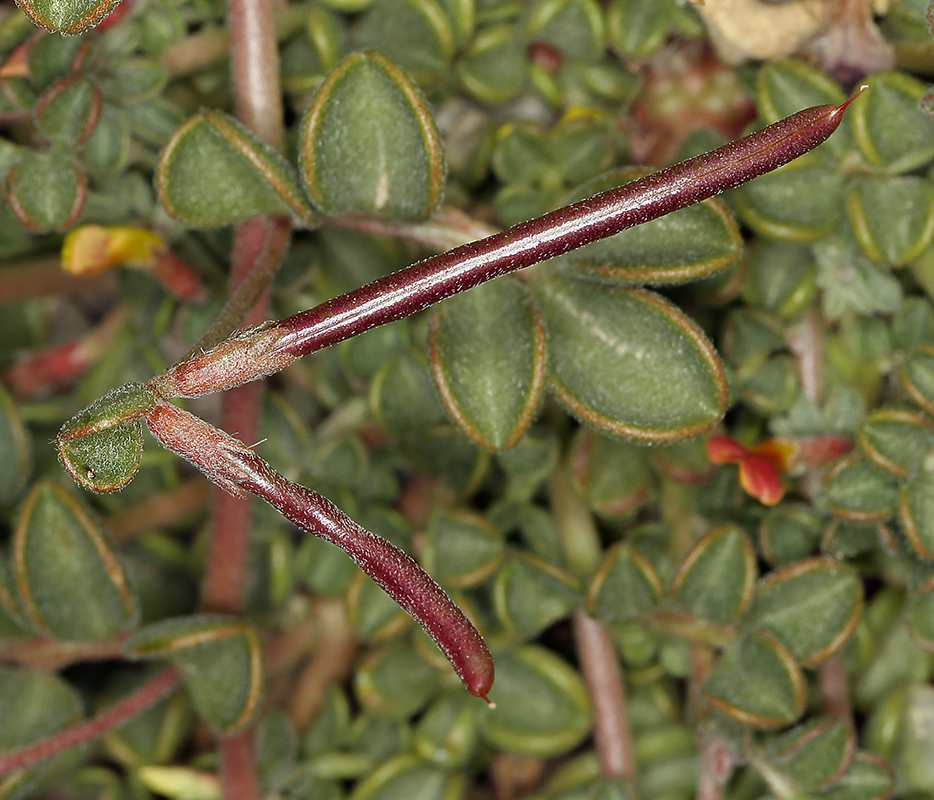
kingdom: Plantae
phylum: Tracheophyta
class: Magnoliopsida
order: Fabales
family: Fabaceae
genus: Acmispon
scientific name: Acmispon strigosus
